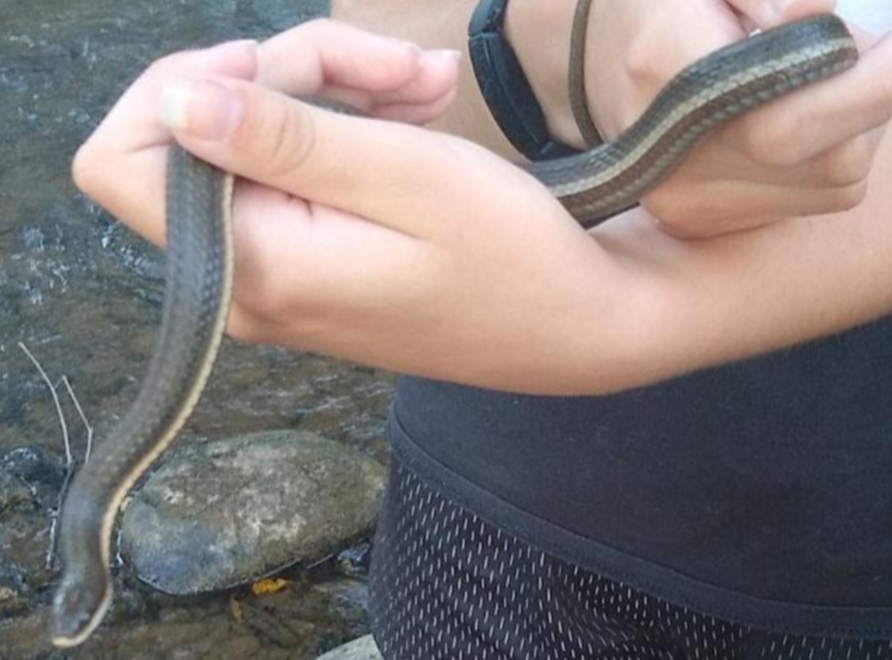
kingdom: Animalia
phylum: Chordata
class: Squamata
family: Colubridae
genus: Regina
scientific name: Regina septemvittata
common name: Queen snake
